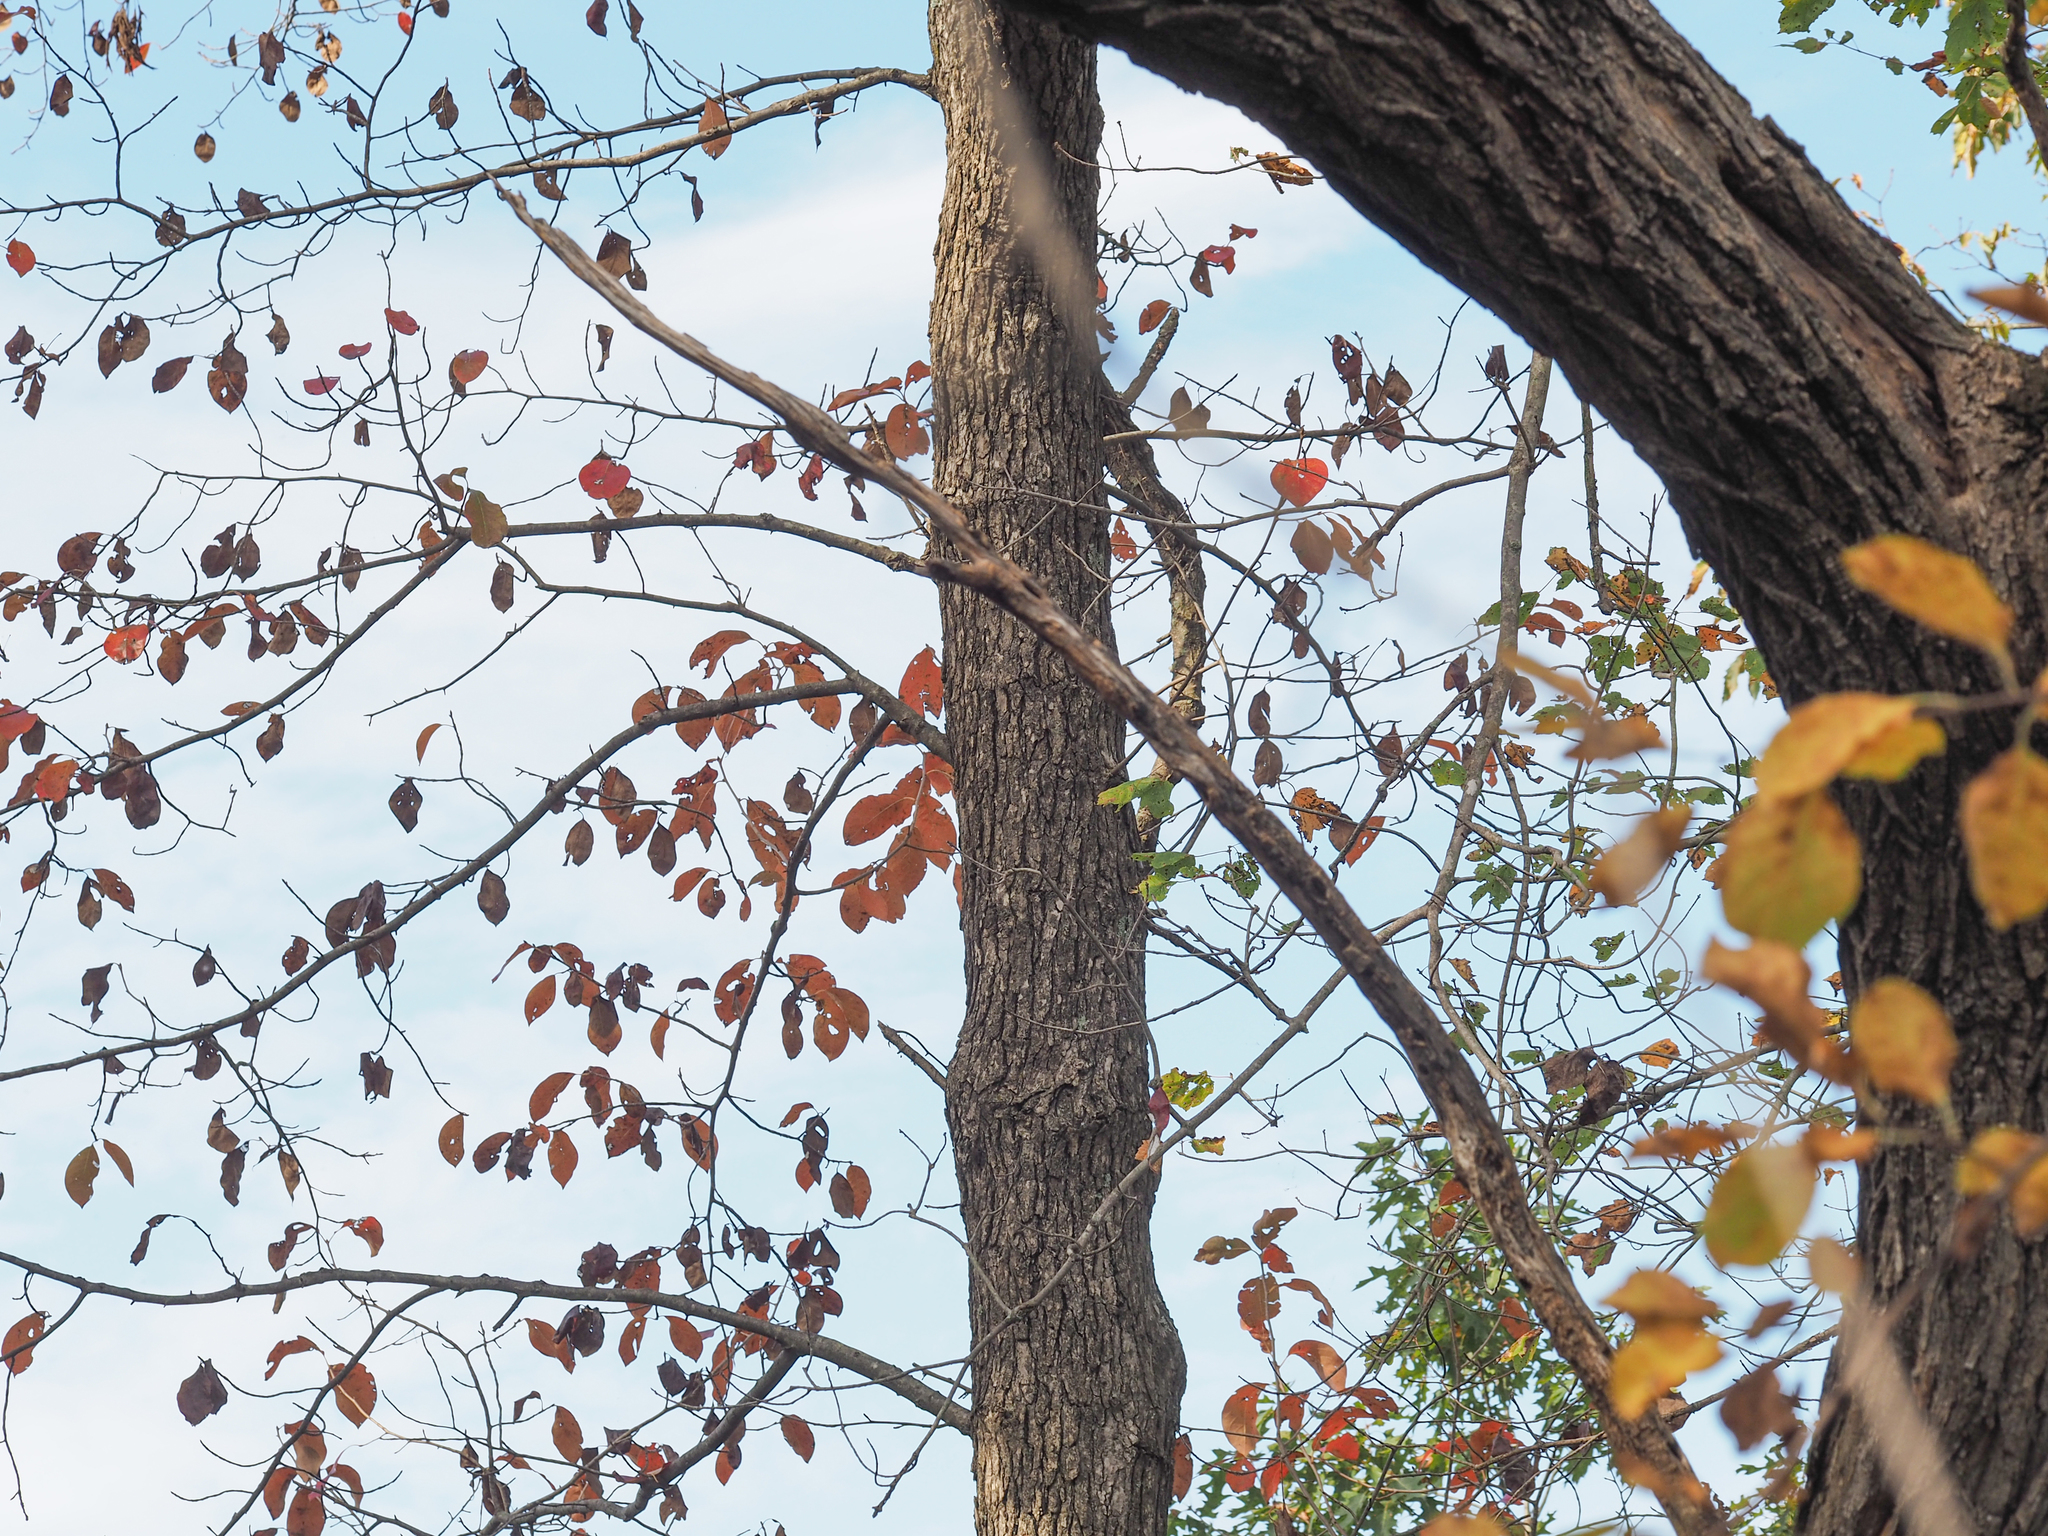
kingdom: Plantae
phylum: Tracheophyta
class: Magnoliopsida
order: Cornales
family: Nyssaceae
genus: Nyssa
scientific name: Nyssa sylvatica
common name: Black tupelo
